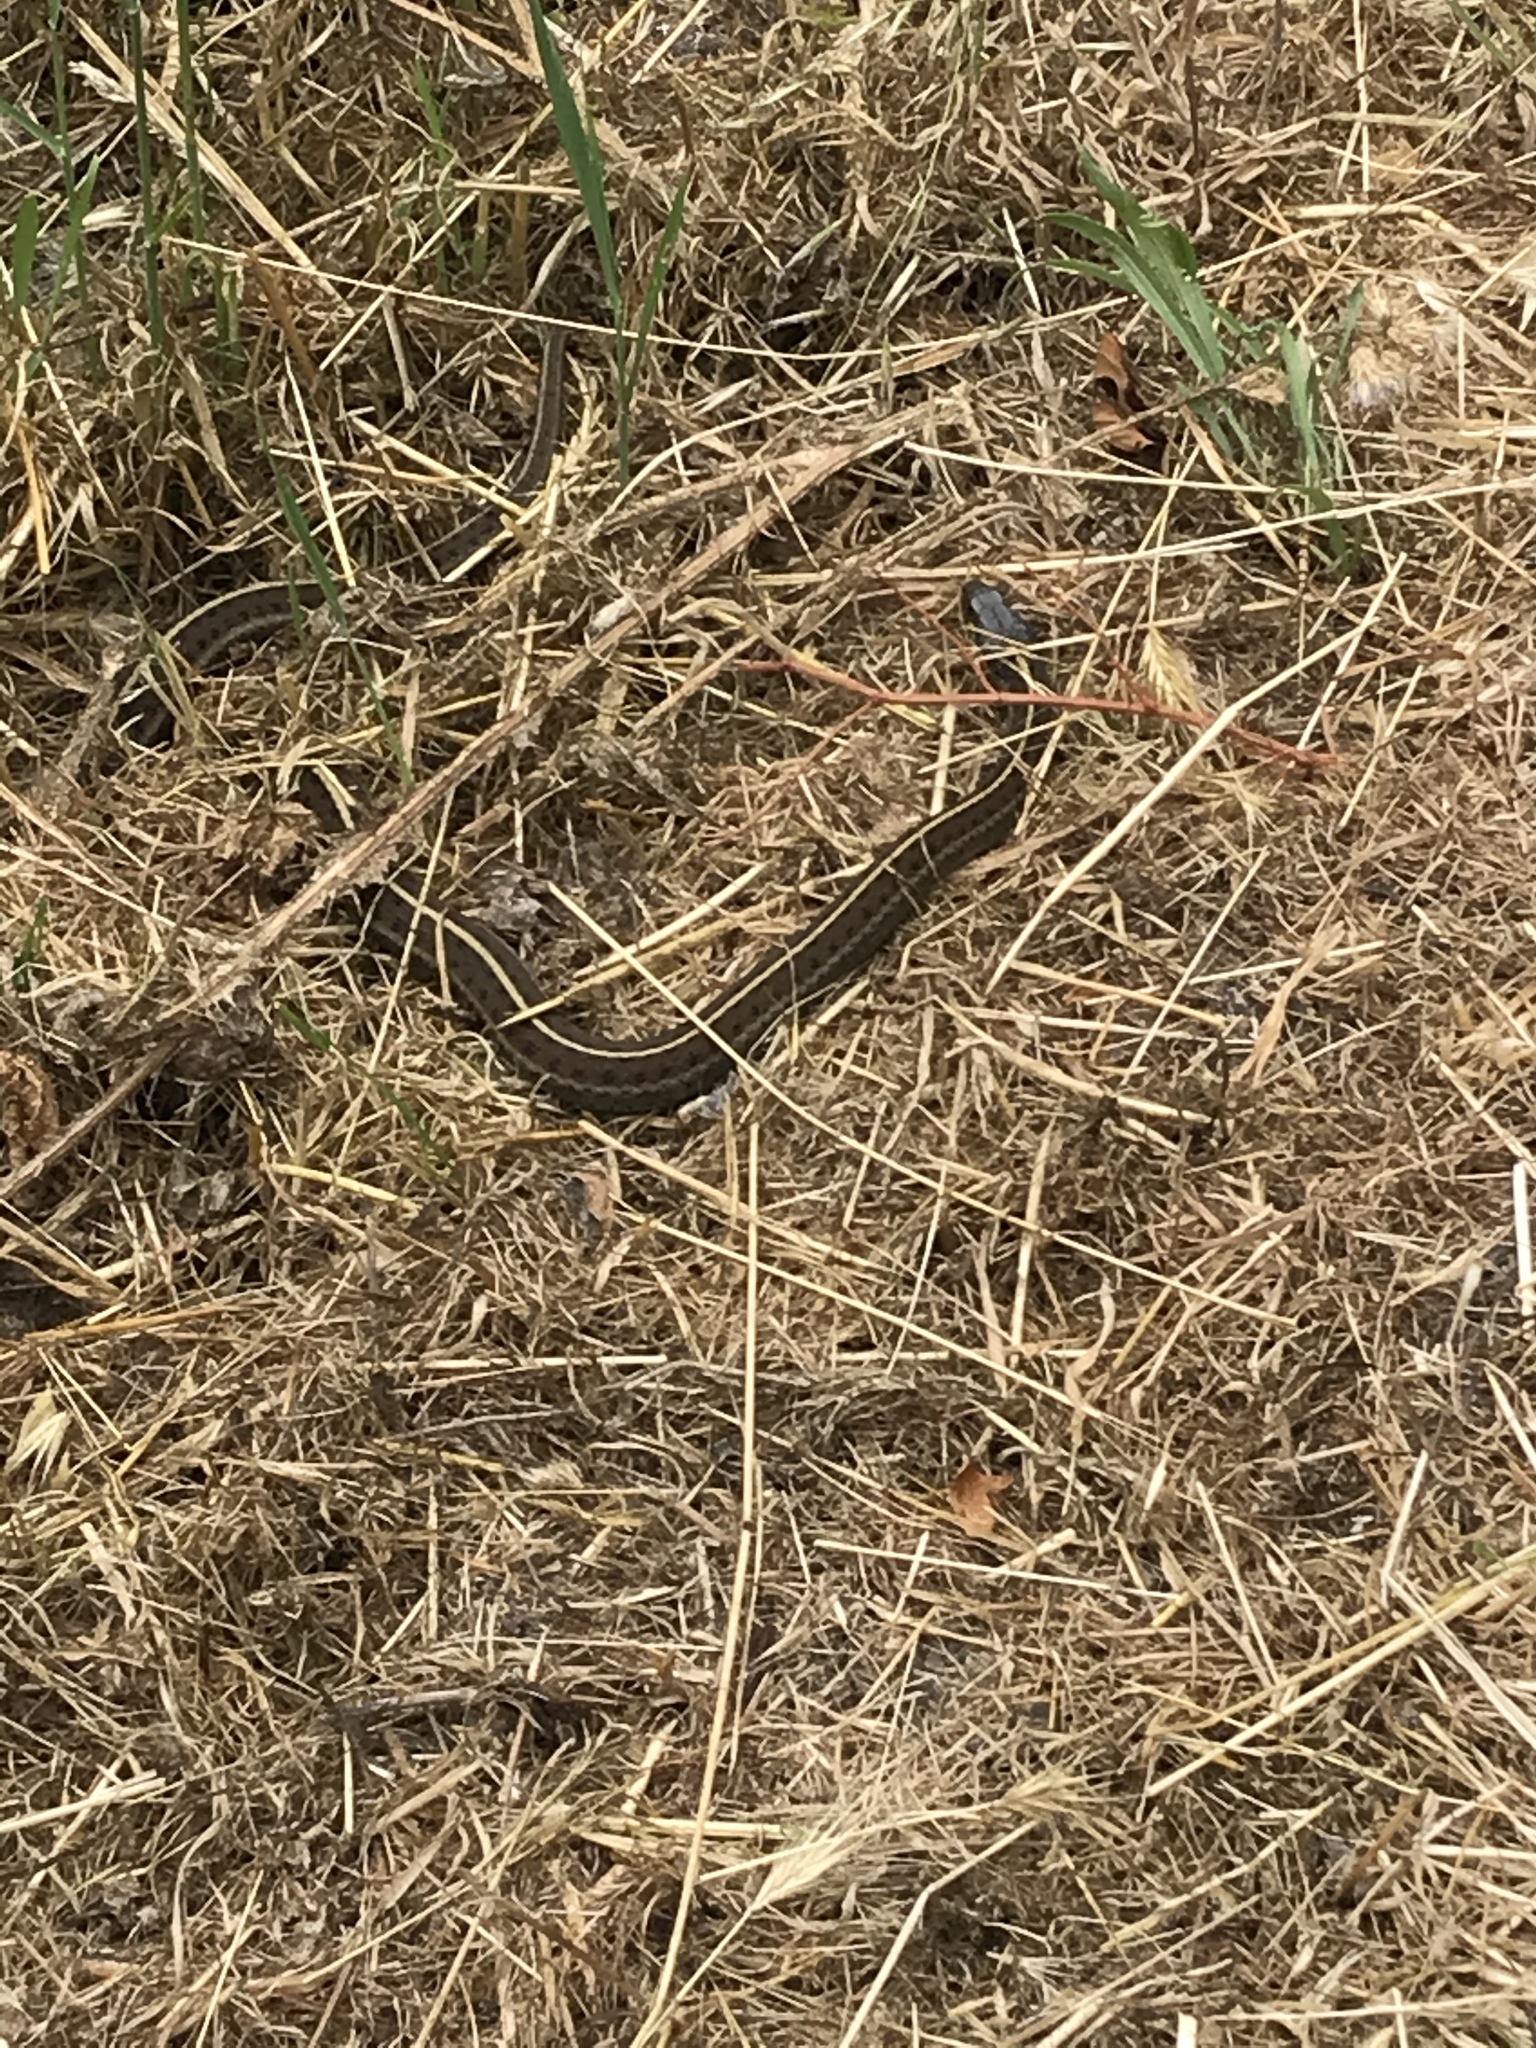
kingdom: Animalia
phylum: Chordata
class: Squamata
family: Colubridae
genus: Thamnophis
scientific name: Thamnophis elegans
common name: Western terrestrial garter snake
